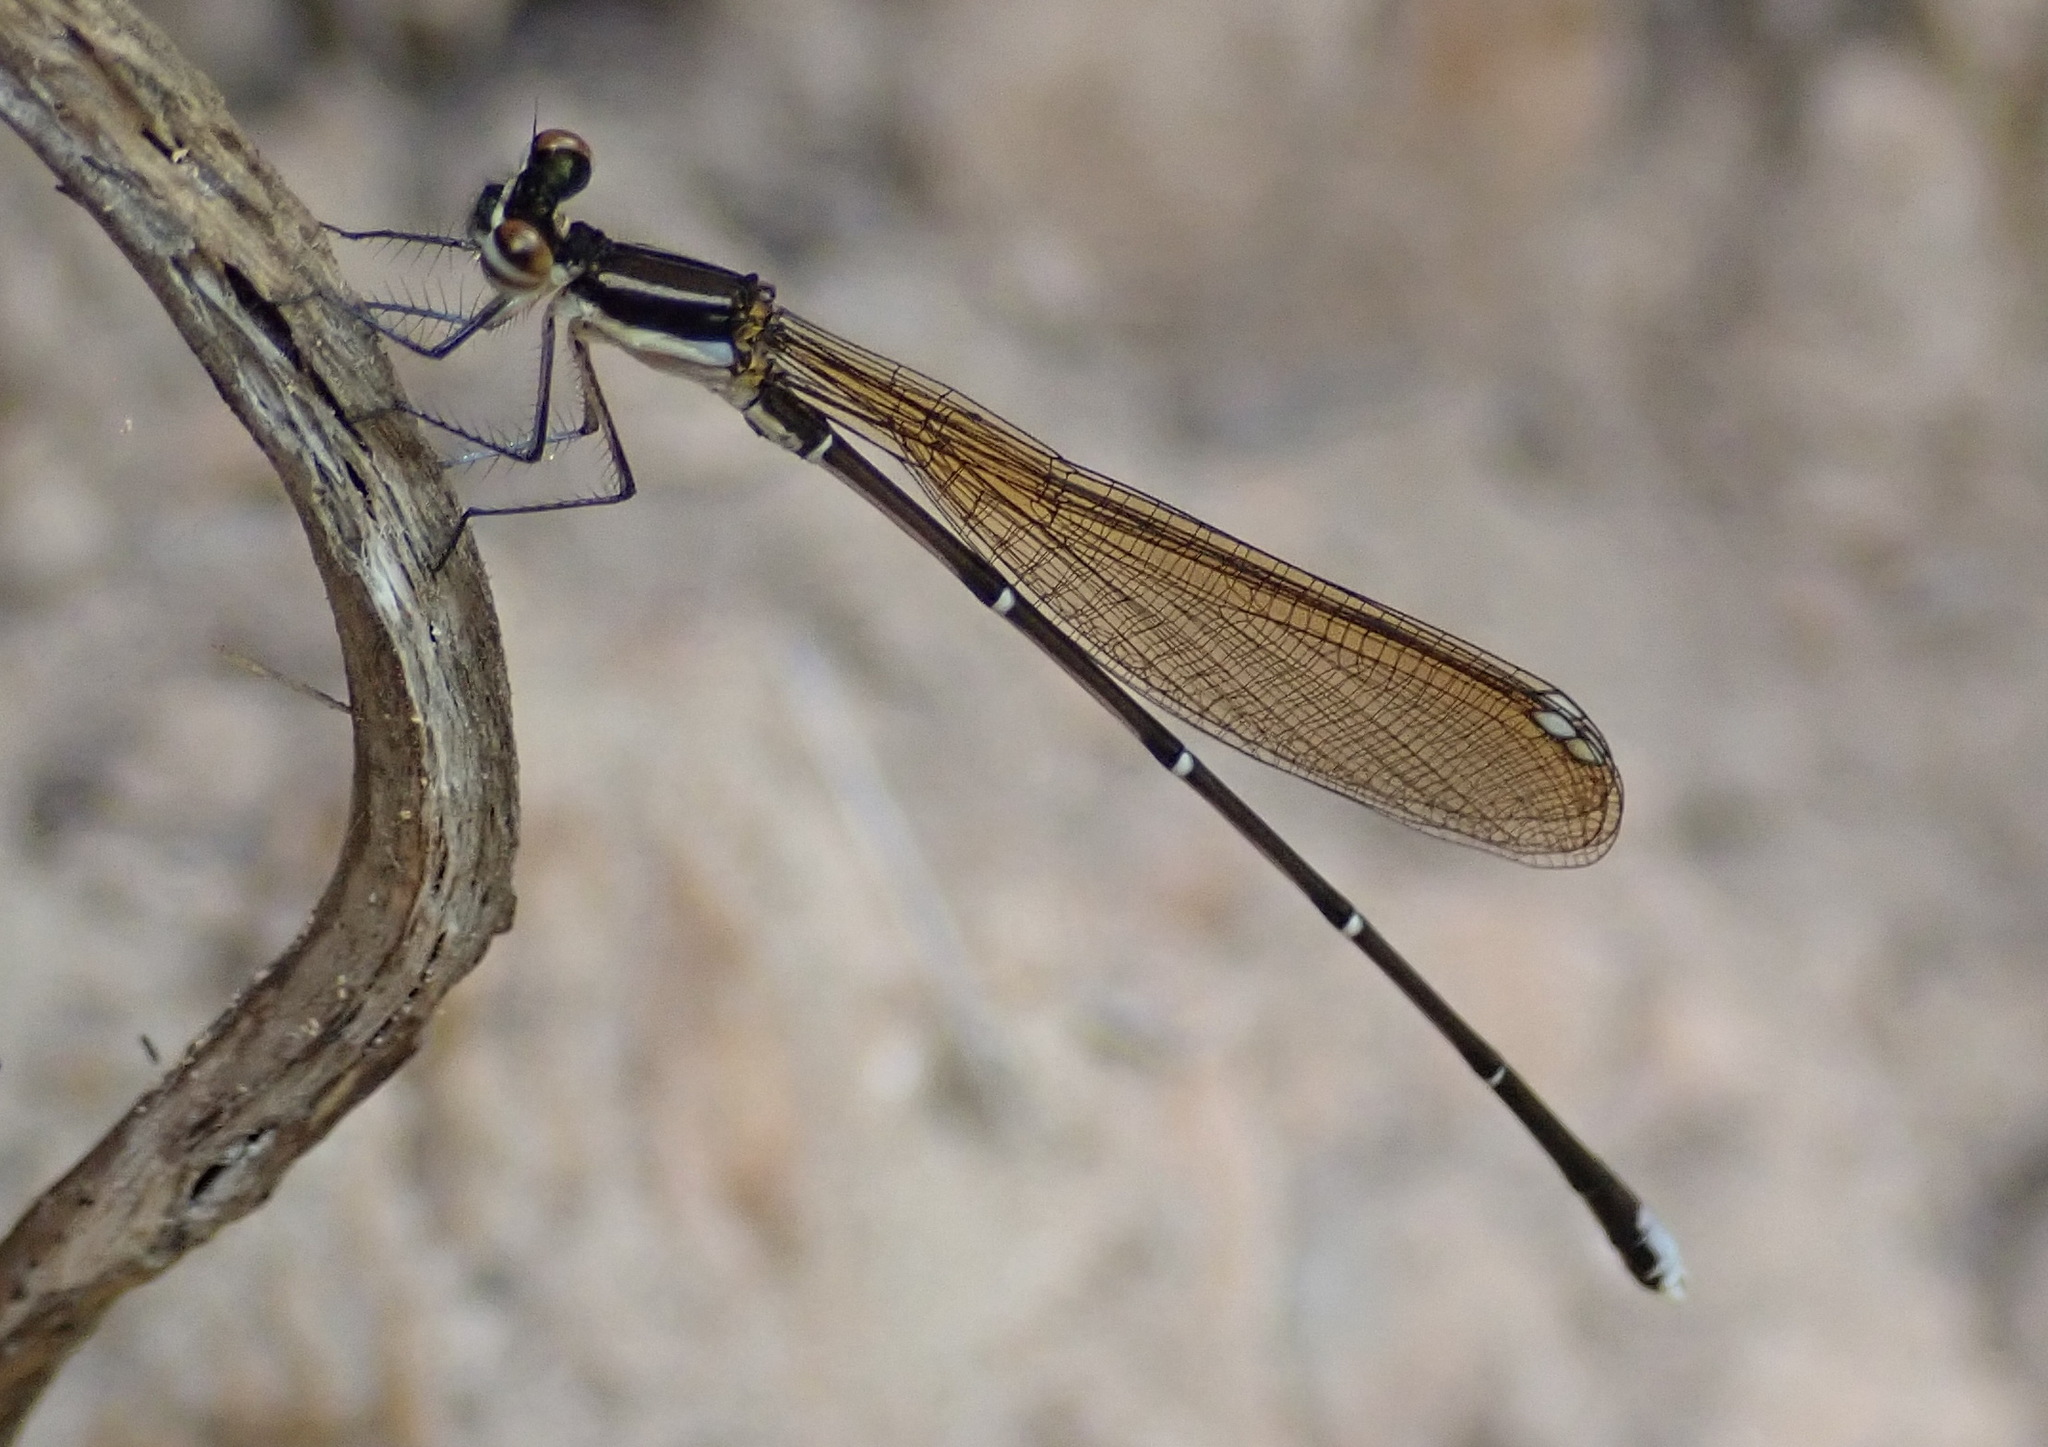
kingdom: Animalia
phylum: Arthropoda
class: Insecta
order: Odonata
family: Platycnemididae
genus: Allocnemis
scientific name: Allocnemis leucosticta
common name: Goldtail
